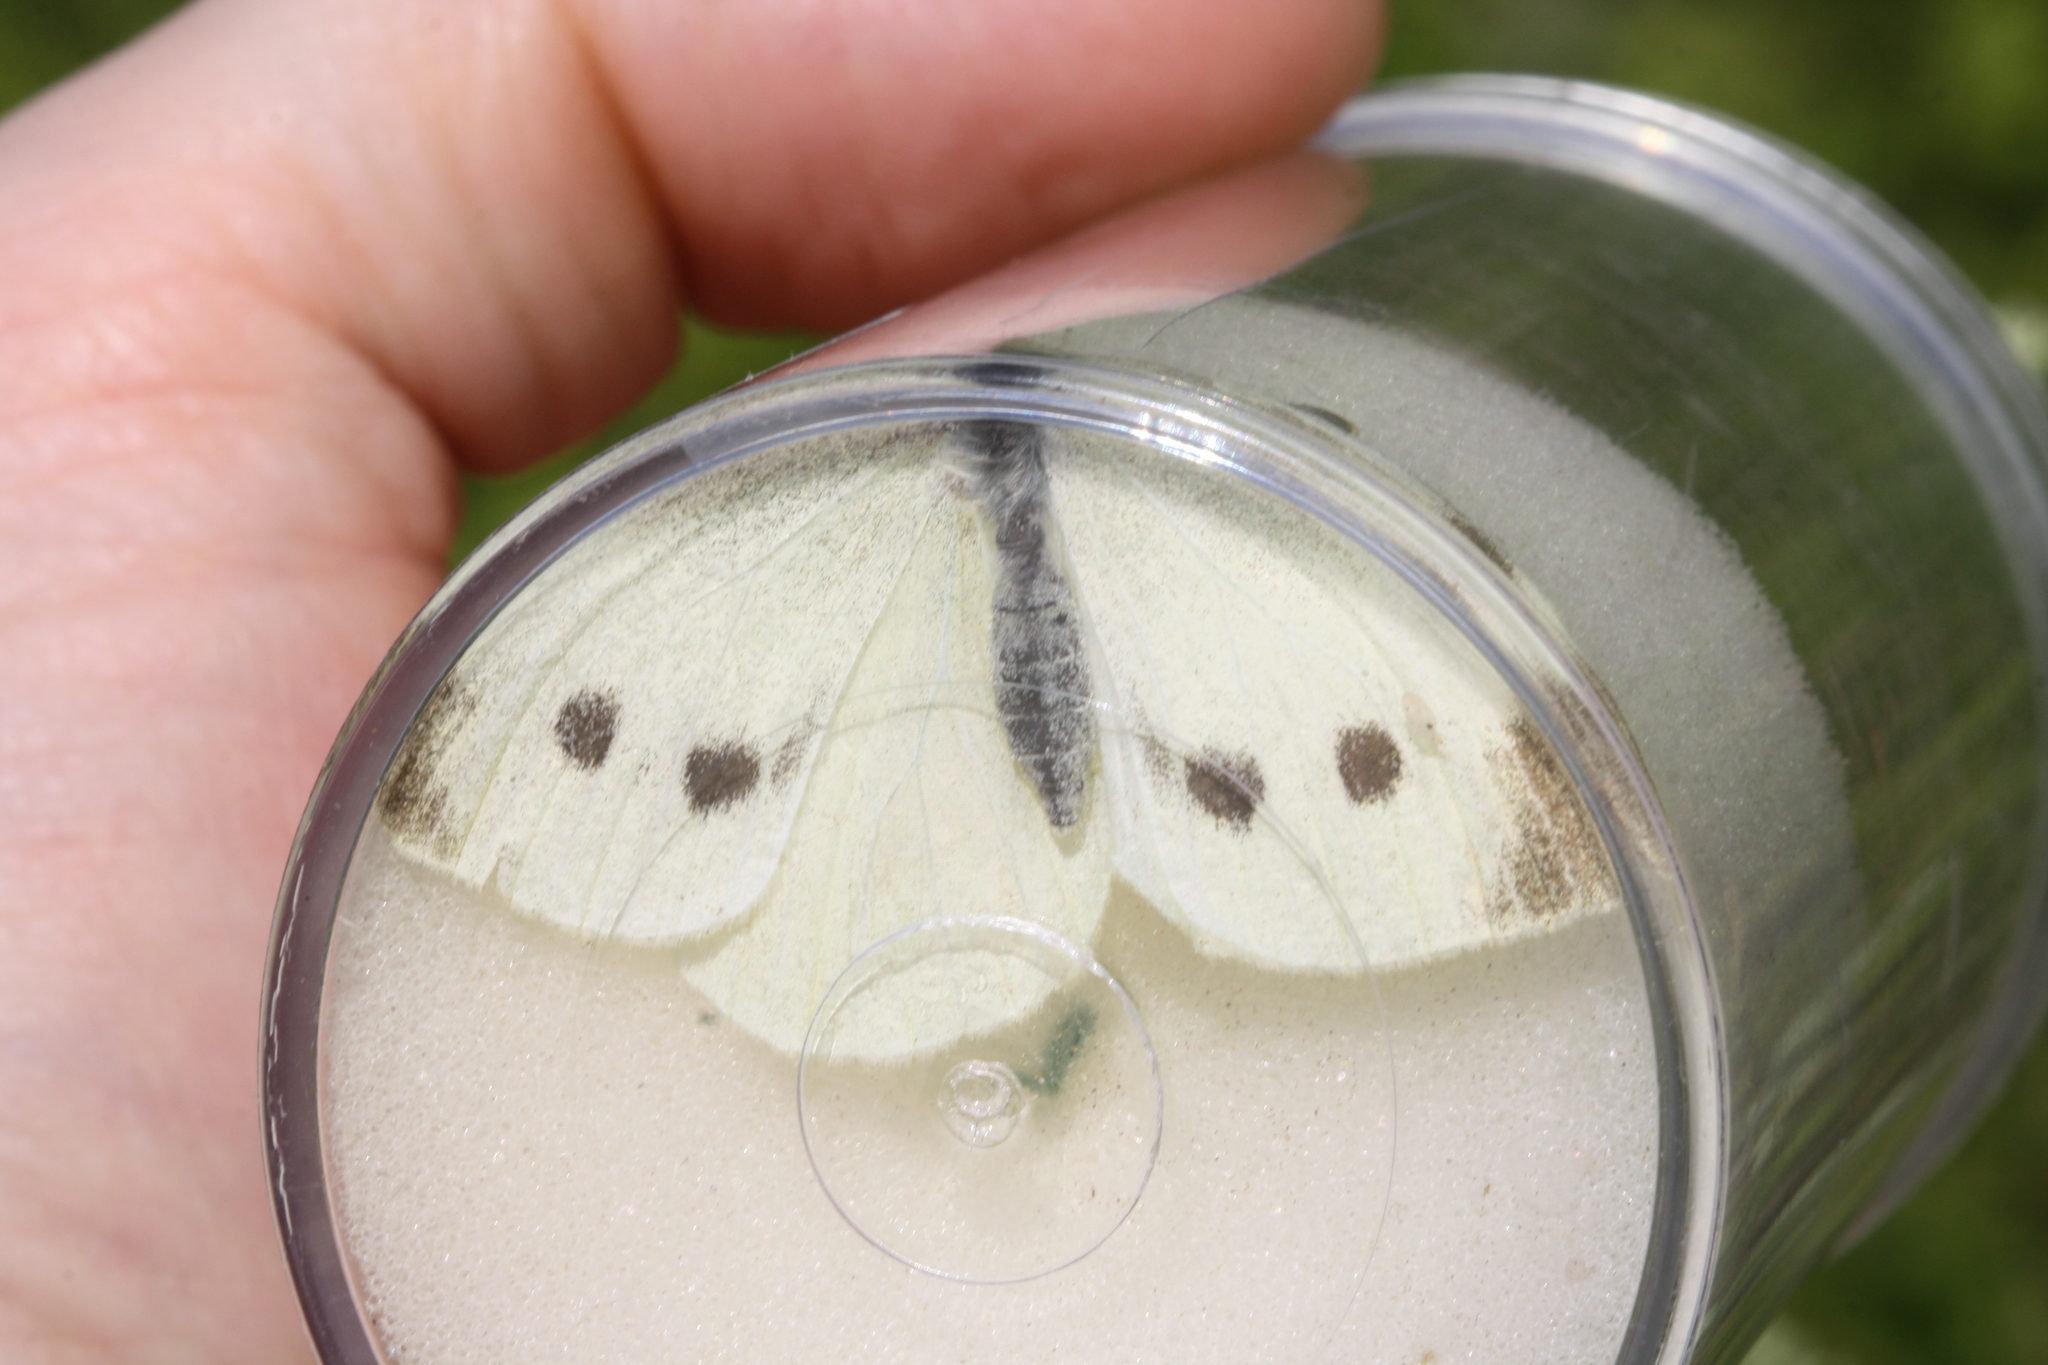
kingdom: Animalia
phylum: Arthropoda
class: Insecta
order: Lepidoptera
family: Pieridae
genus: Pieris
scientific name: Pieris rapae
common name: Small white
